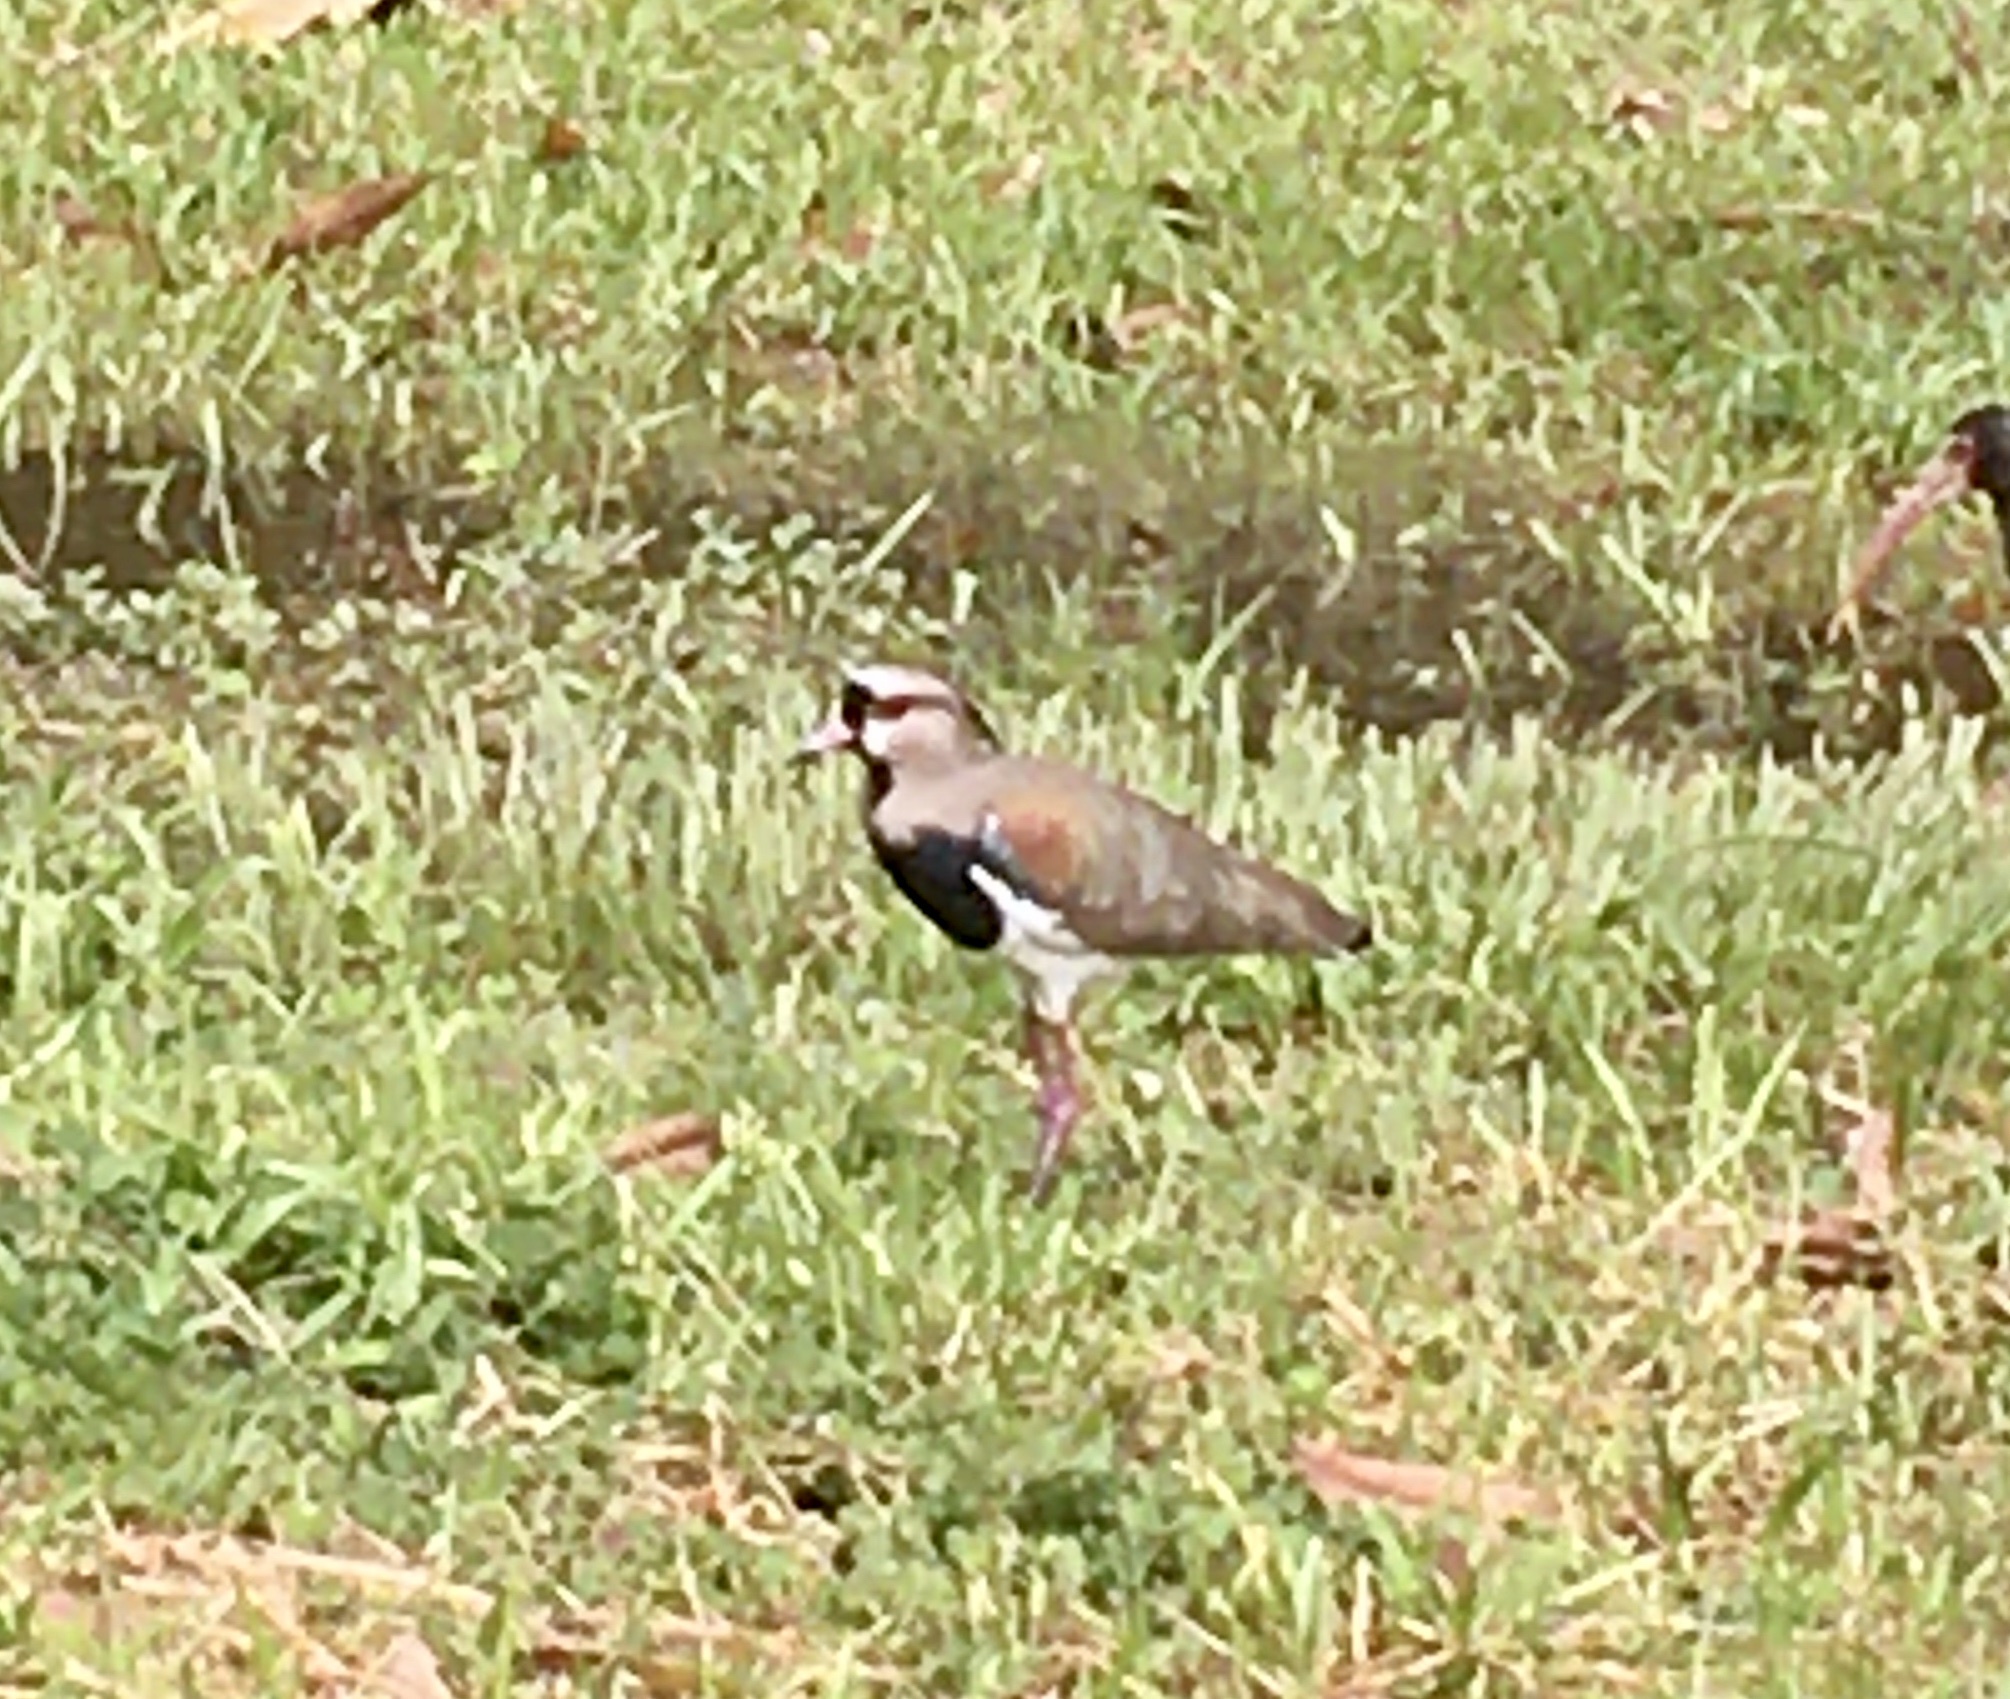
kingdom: Animalia
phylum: Chordata
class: Aves
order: Charadriiformes
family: Charadriidae
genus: Vanellus
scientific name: Vanellus chilensis
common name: Southern lapwing
